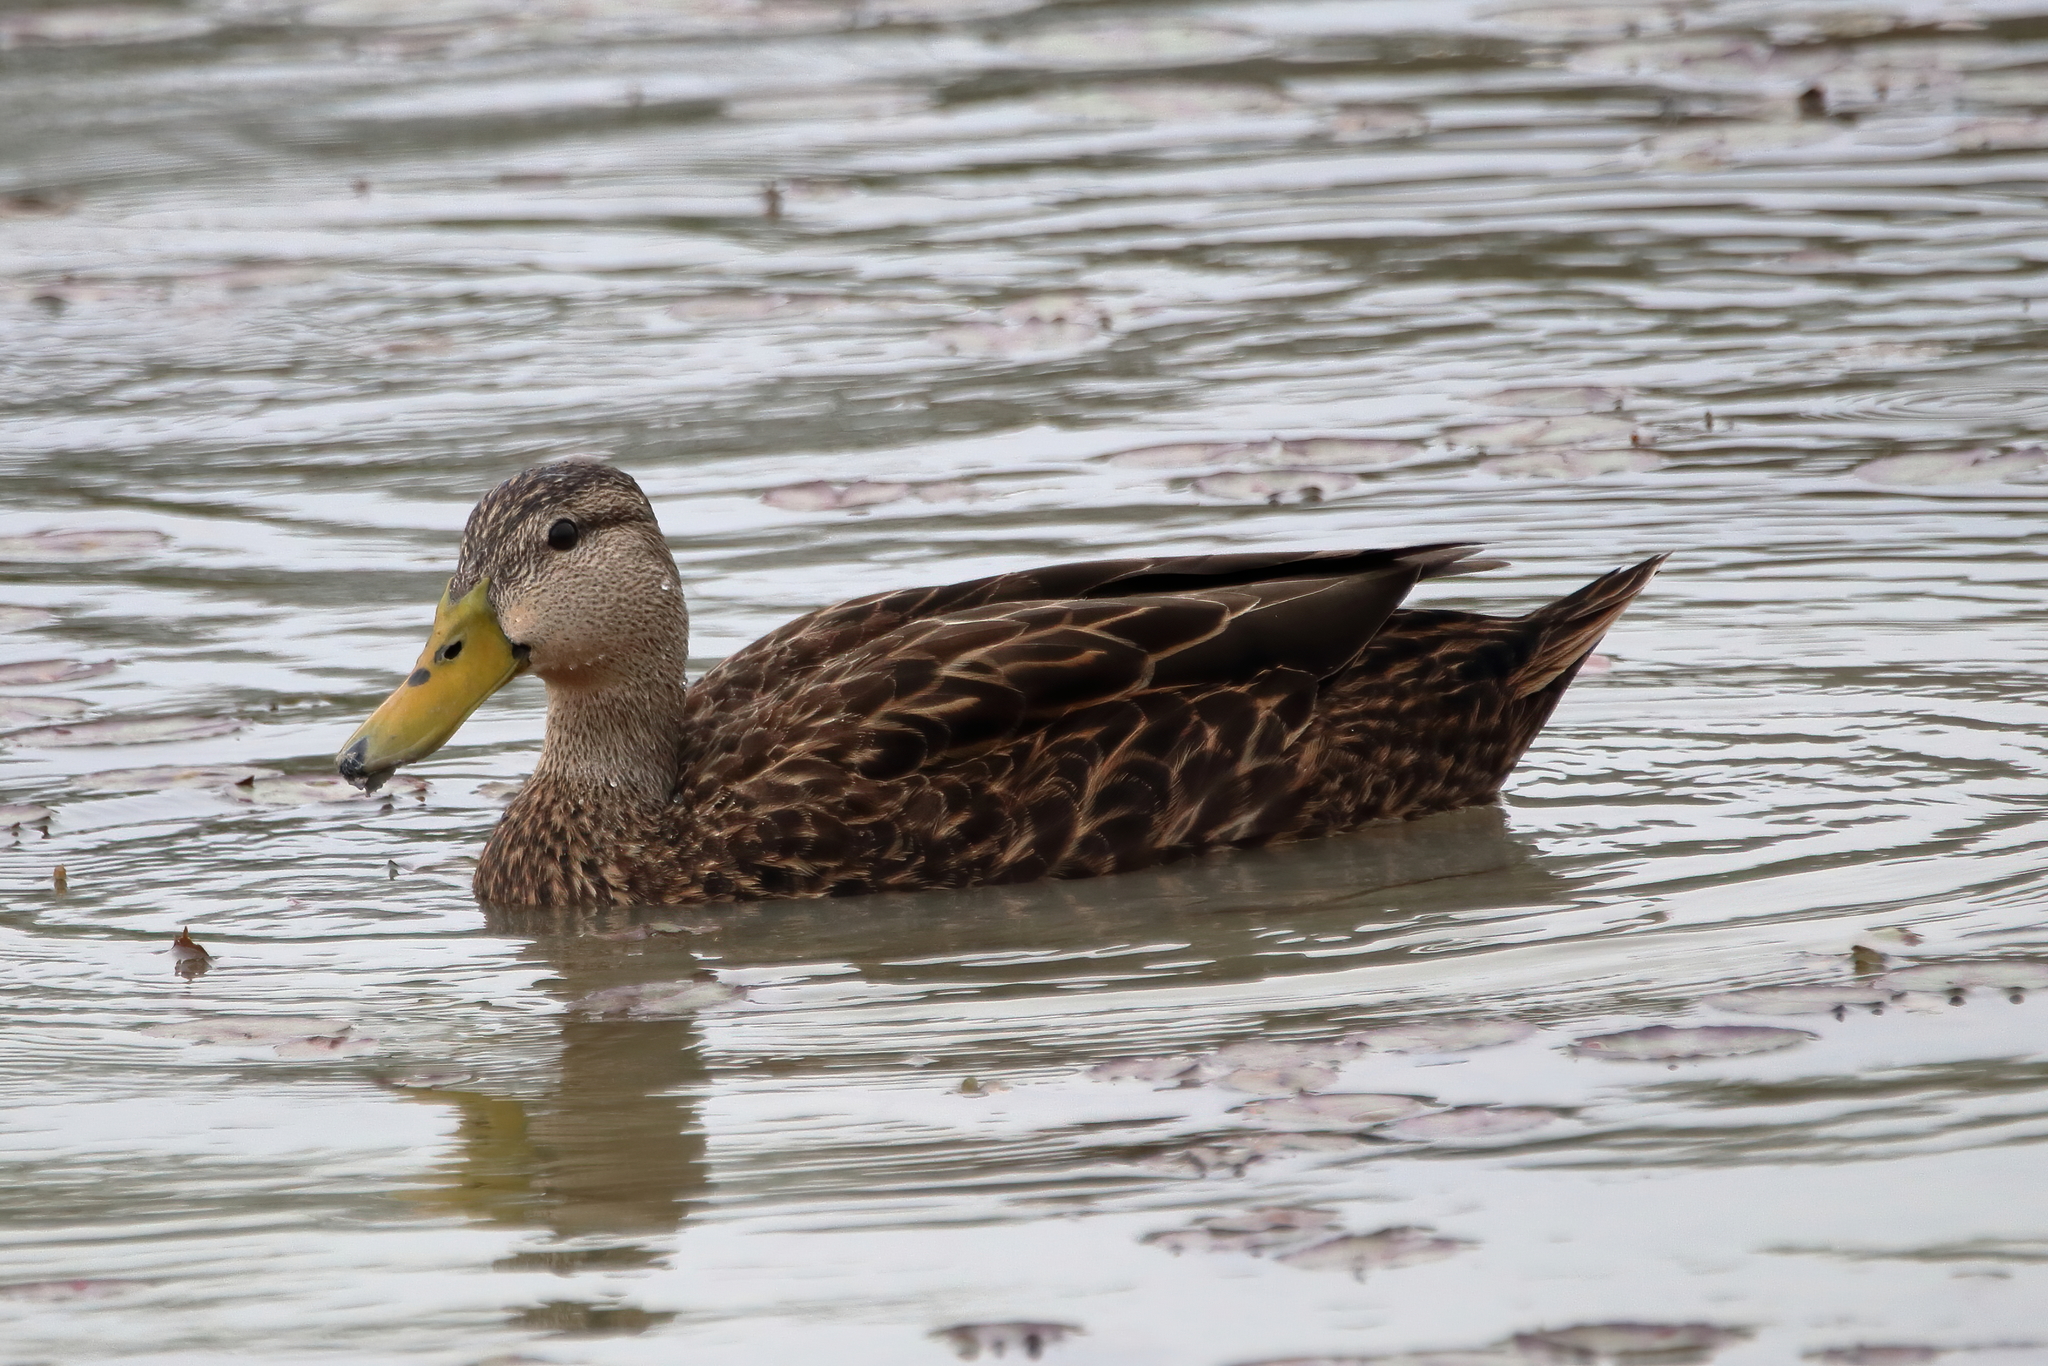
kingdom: Animalia
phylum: Chordata
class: Aves
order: Anseriformes
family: Anatidae
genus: Anas
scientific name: Anas fulvigula
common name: Mottled duck
